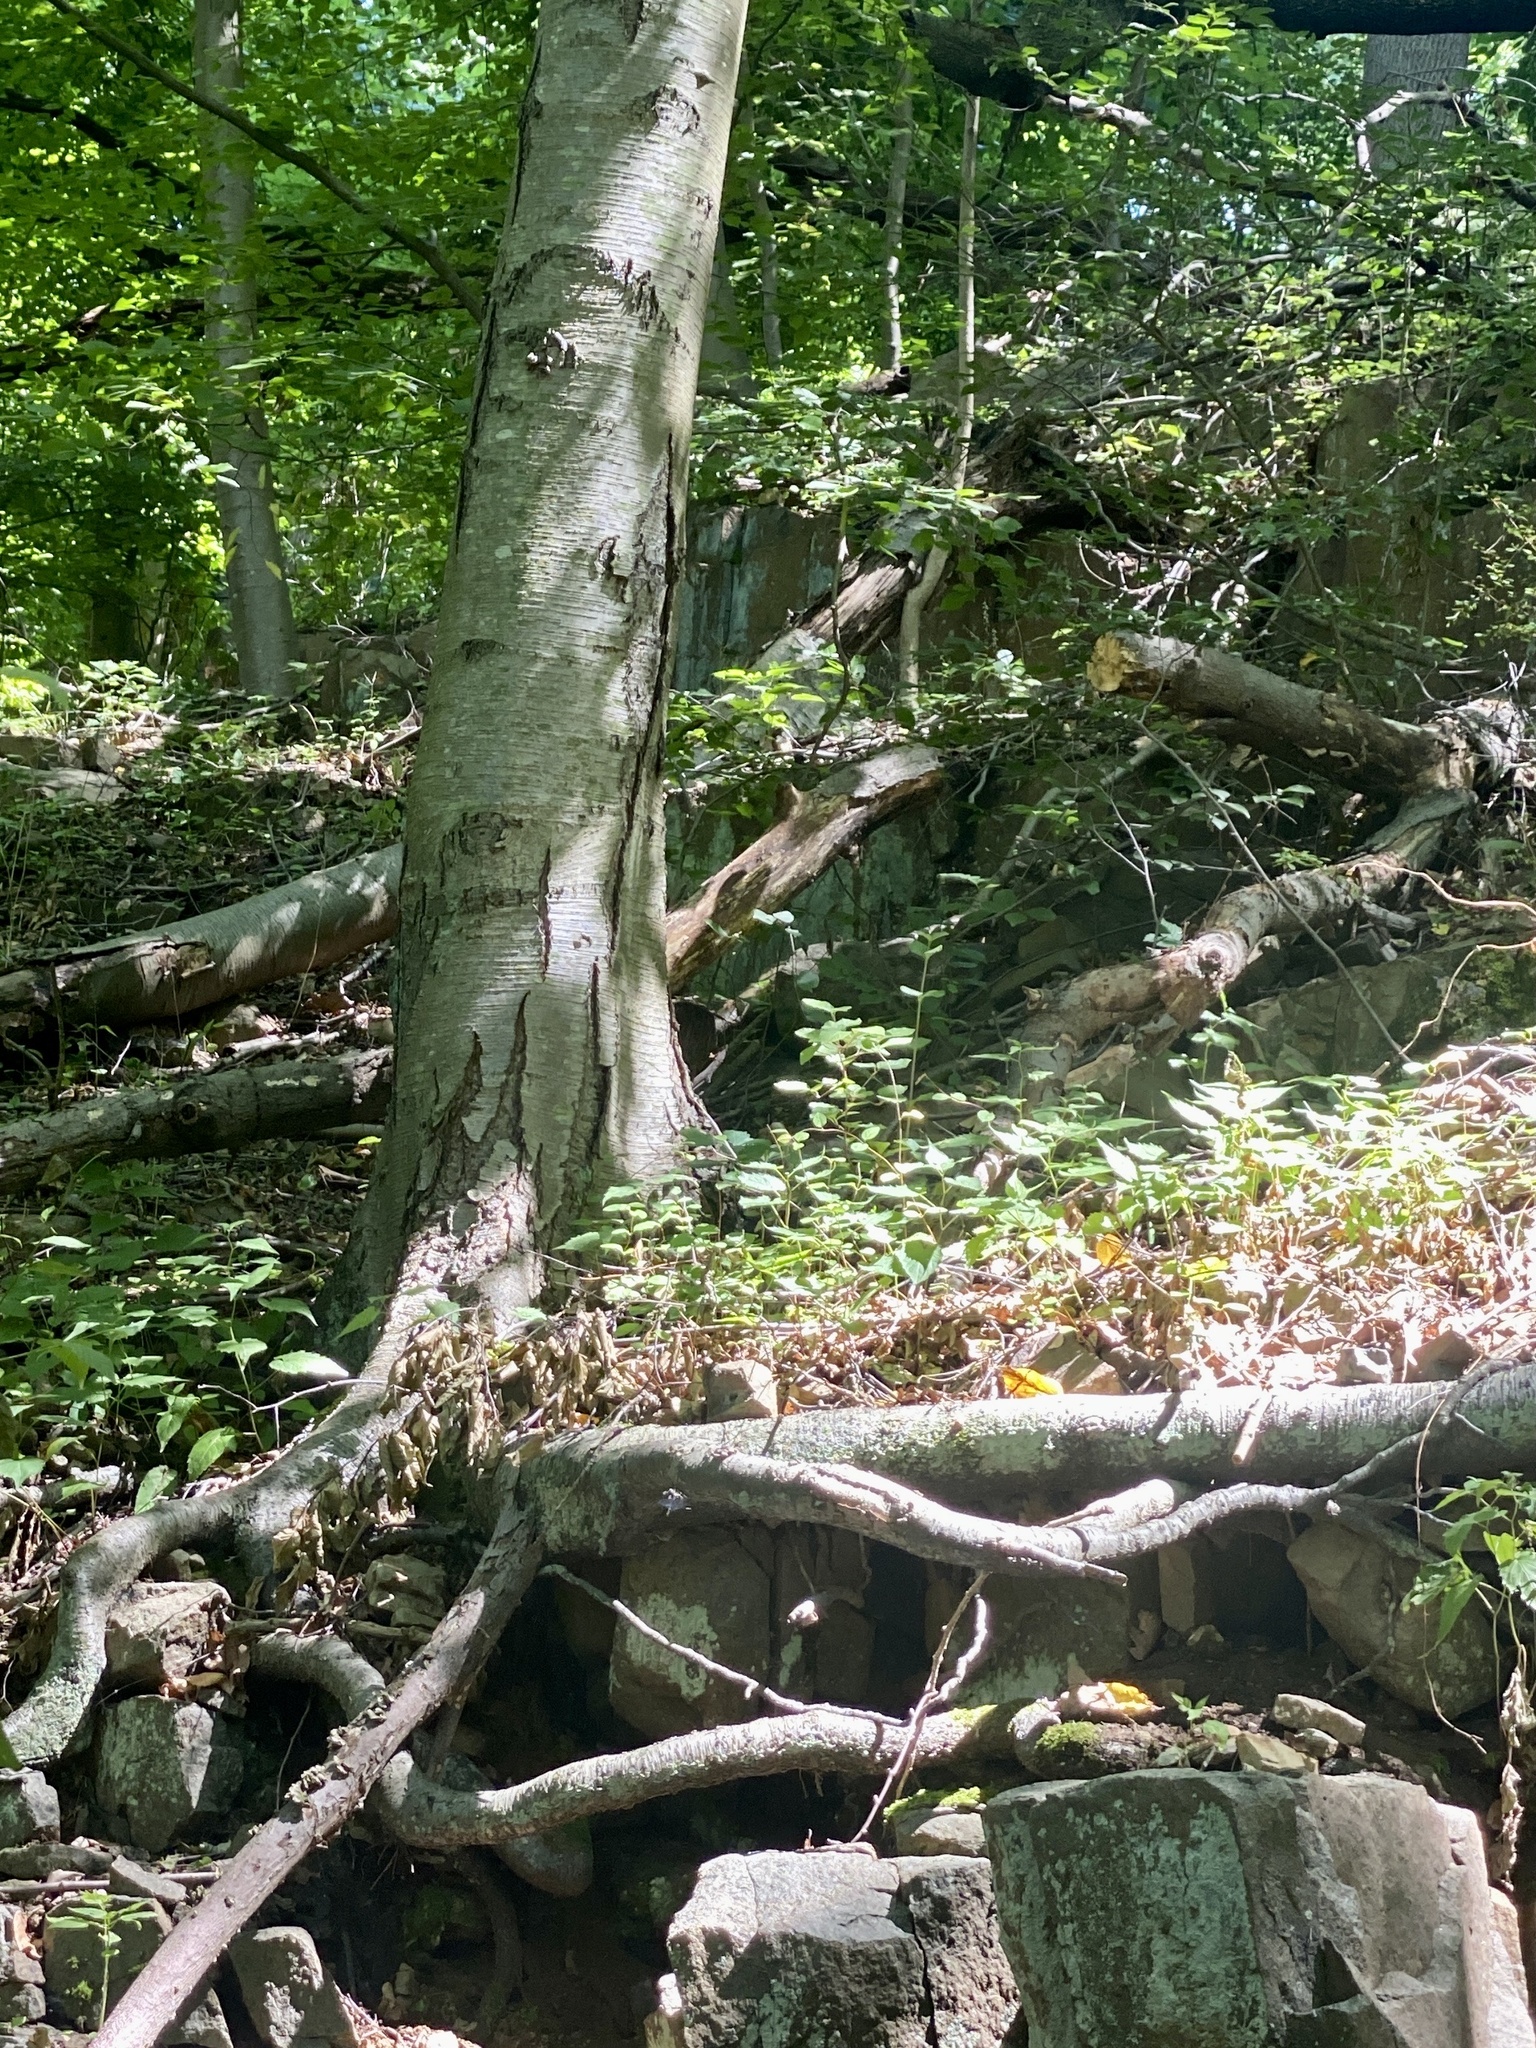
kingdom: Plantae
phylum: Tracheophyta
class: Magnoliopsida
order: Fagales
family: Betulaceae
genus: Betula
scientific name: Betula lenta
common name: Black birch
